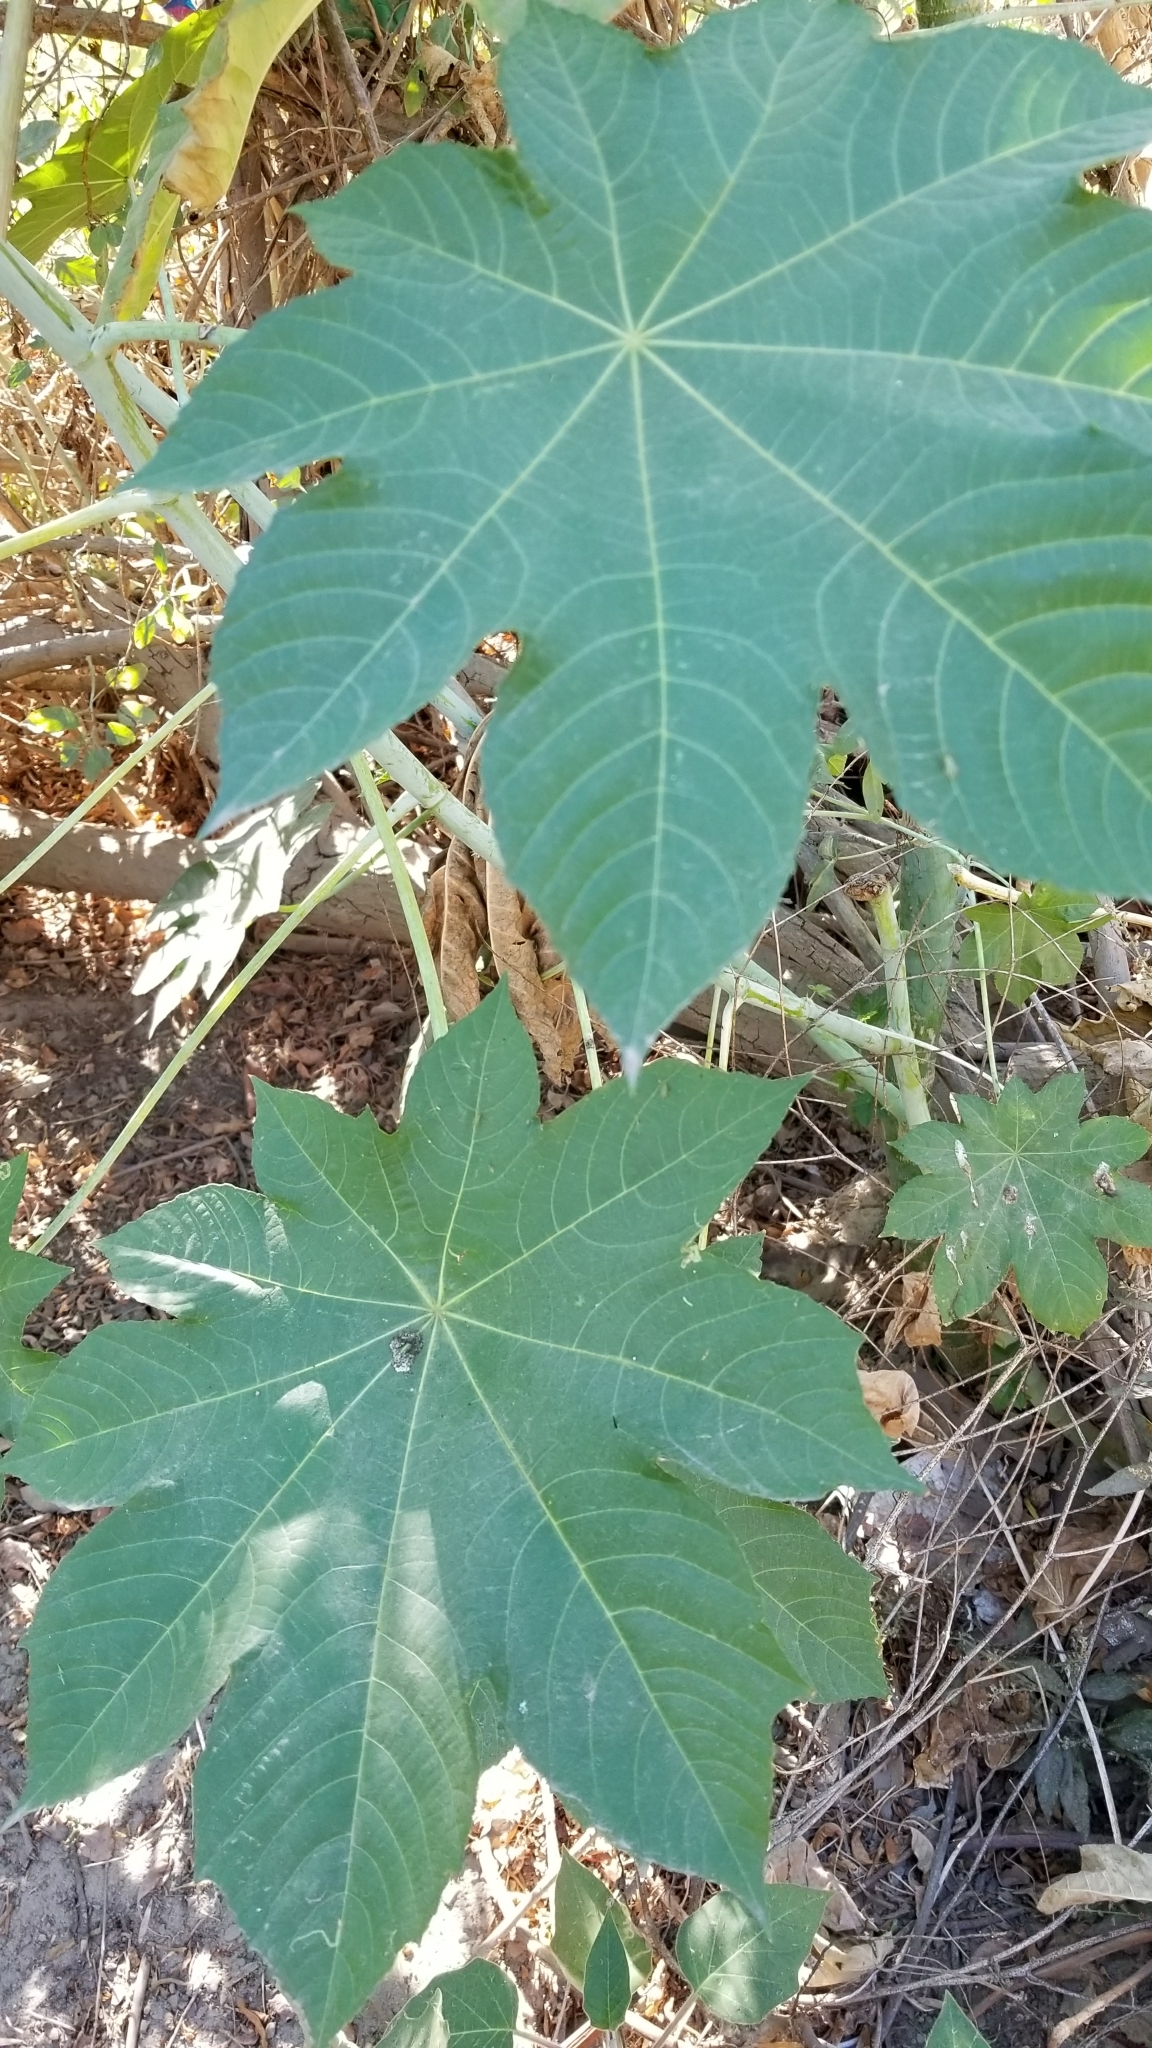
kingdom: Plantae
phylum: Tracheophyta
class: Magnoliopsida
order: Malpighiales
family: Euphorbiaceae
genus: Ricinus
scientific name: Ricinus communis
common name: Castor-oil-plant
